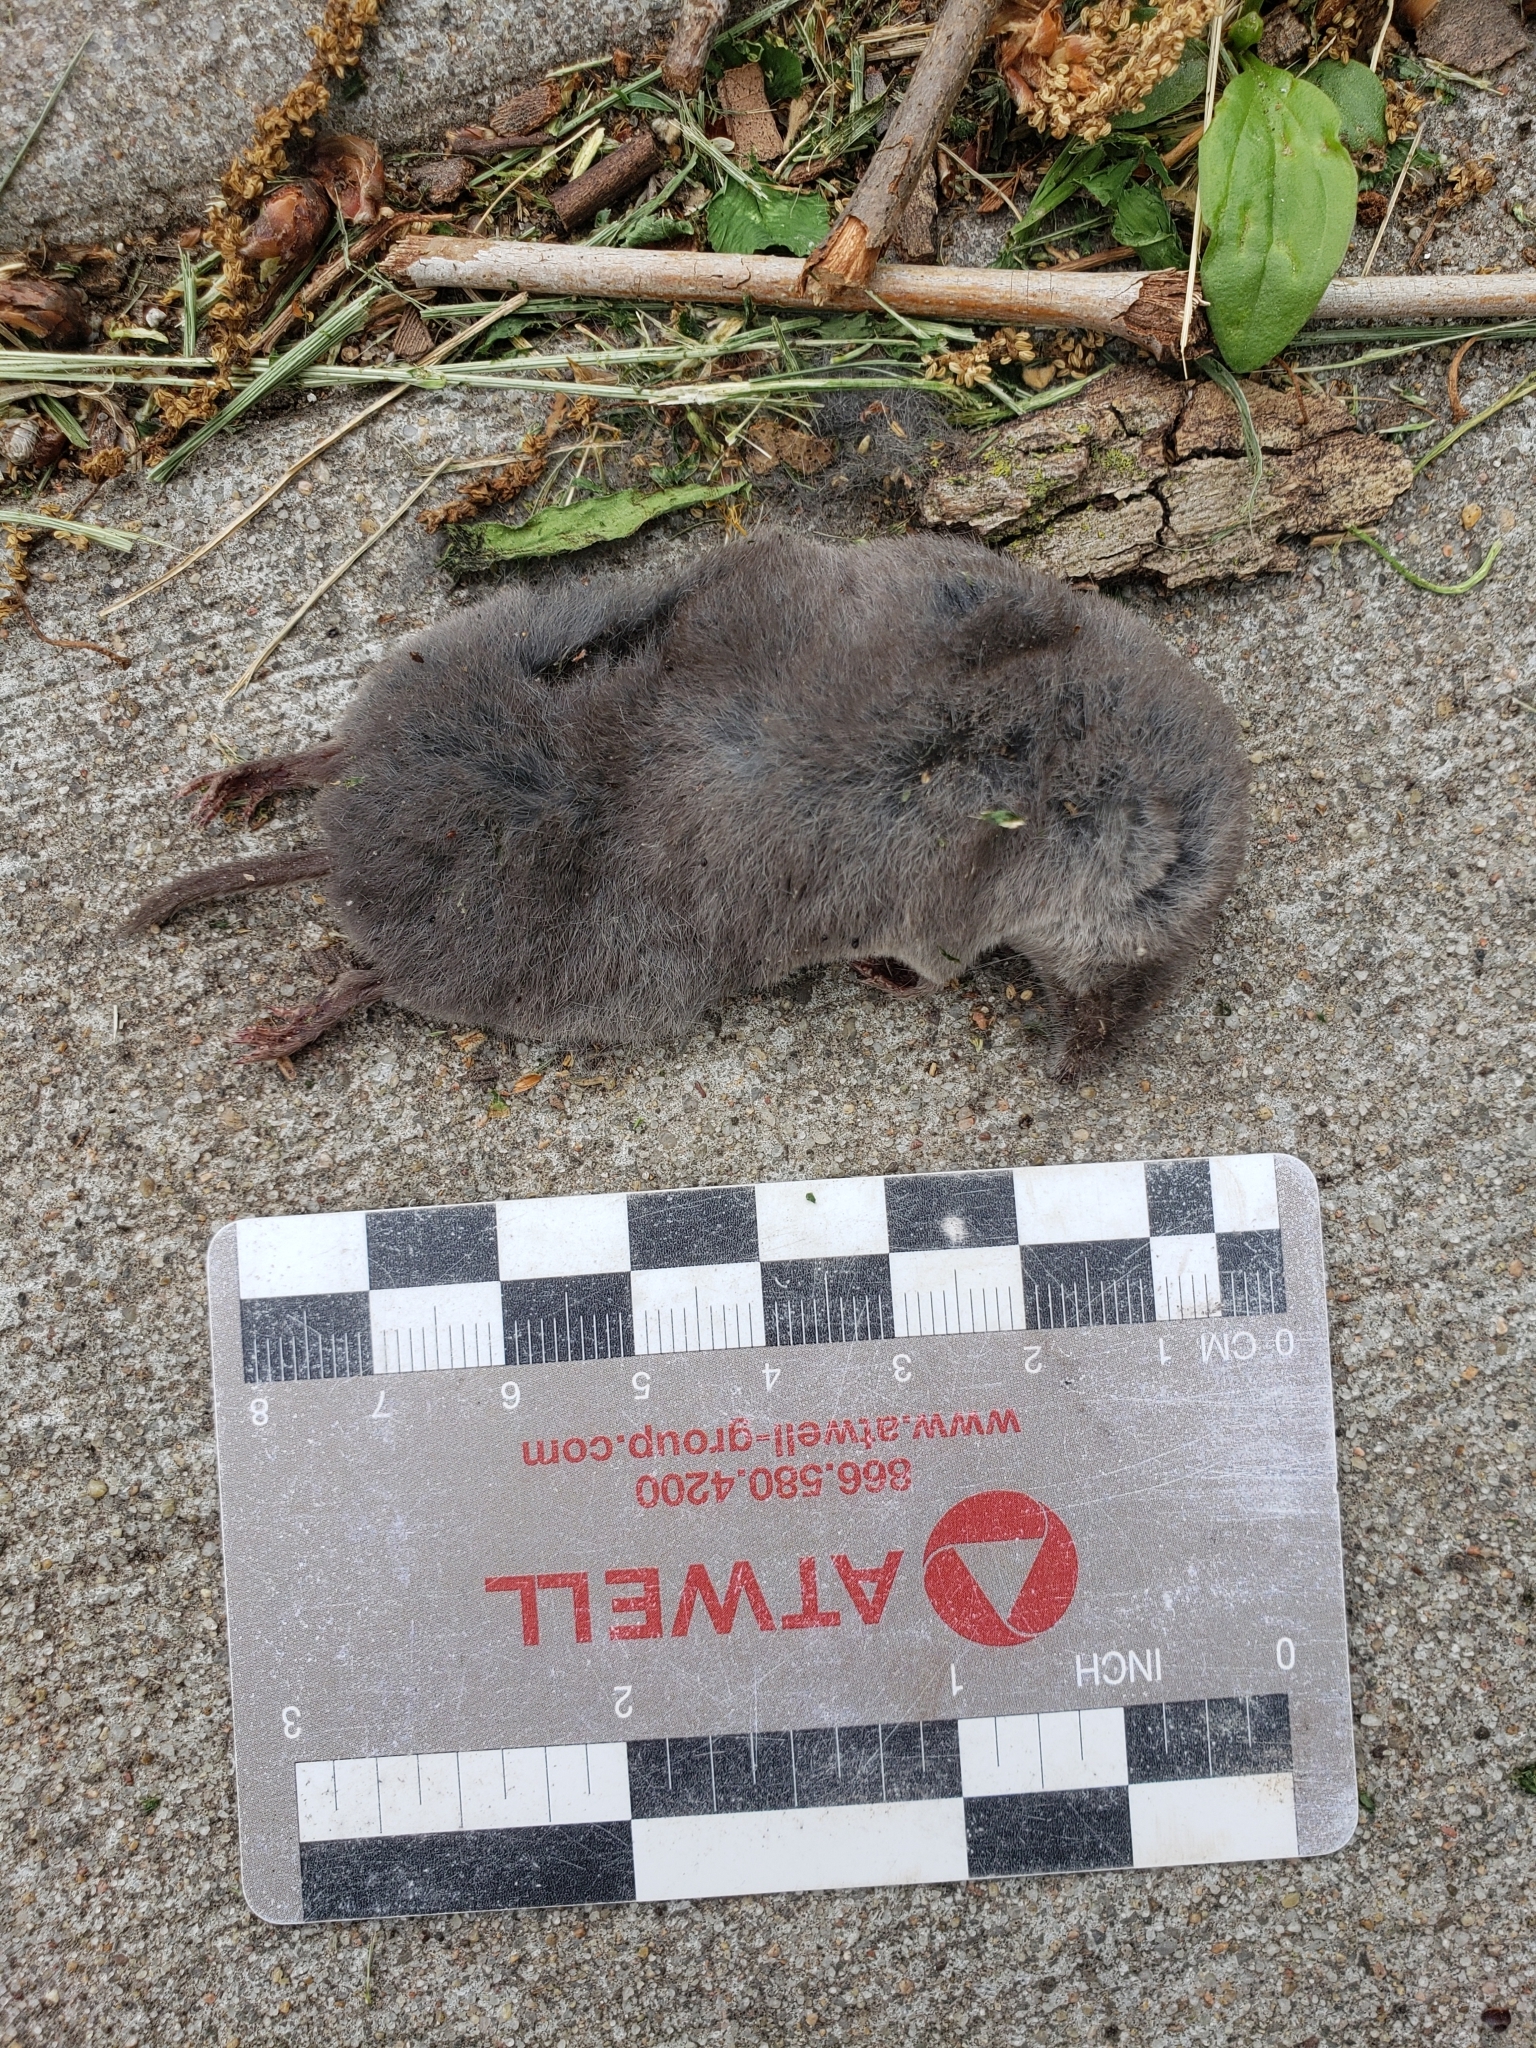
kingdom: Animalia
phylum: Chordata
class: Mammalia
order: Soricomorpha
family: Soricidae
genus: Blarina
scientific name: Blarina brevicauda
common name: Northern short-tailed shrew
